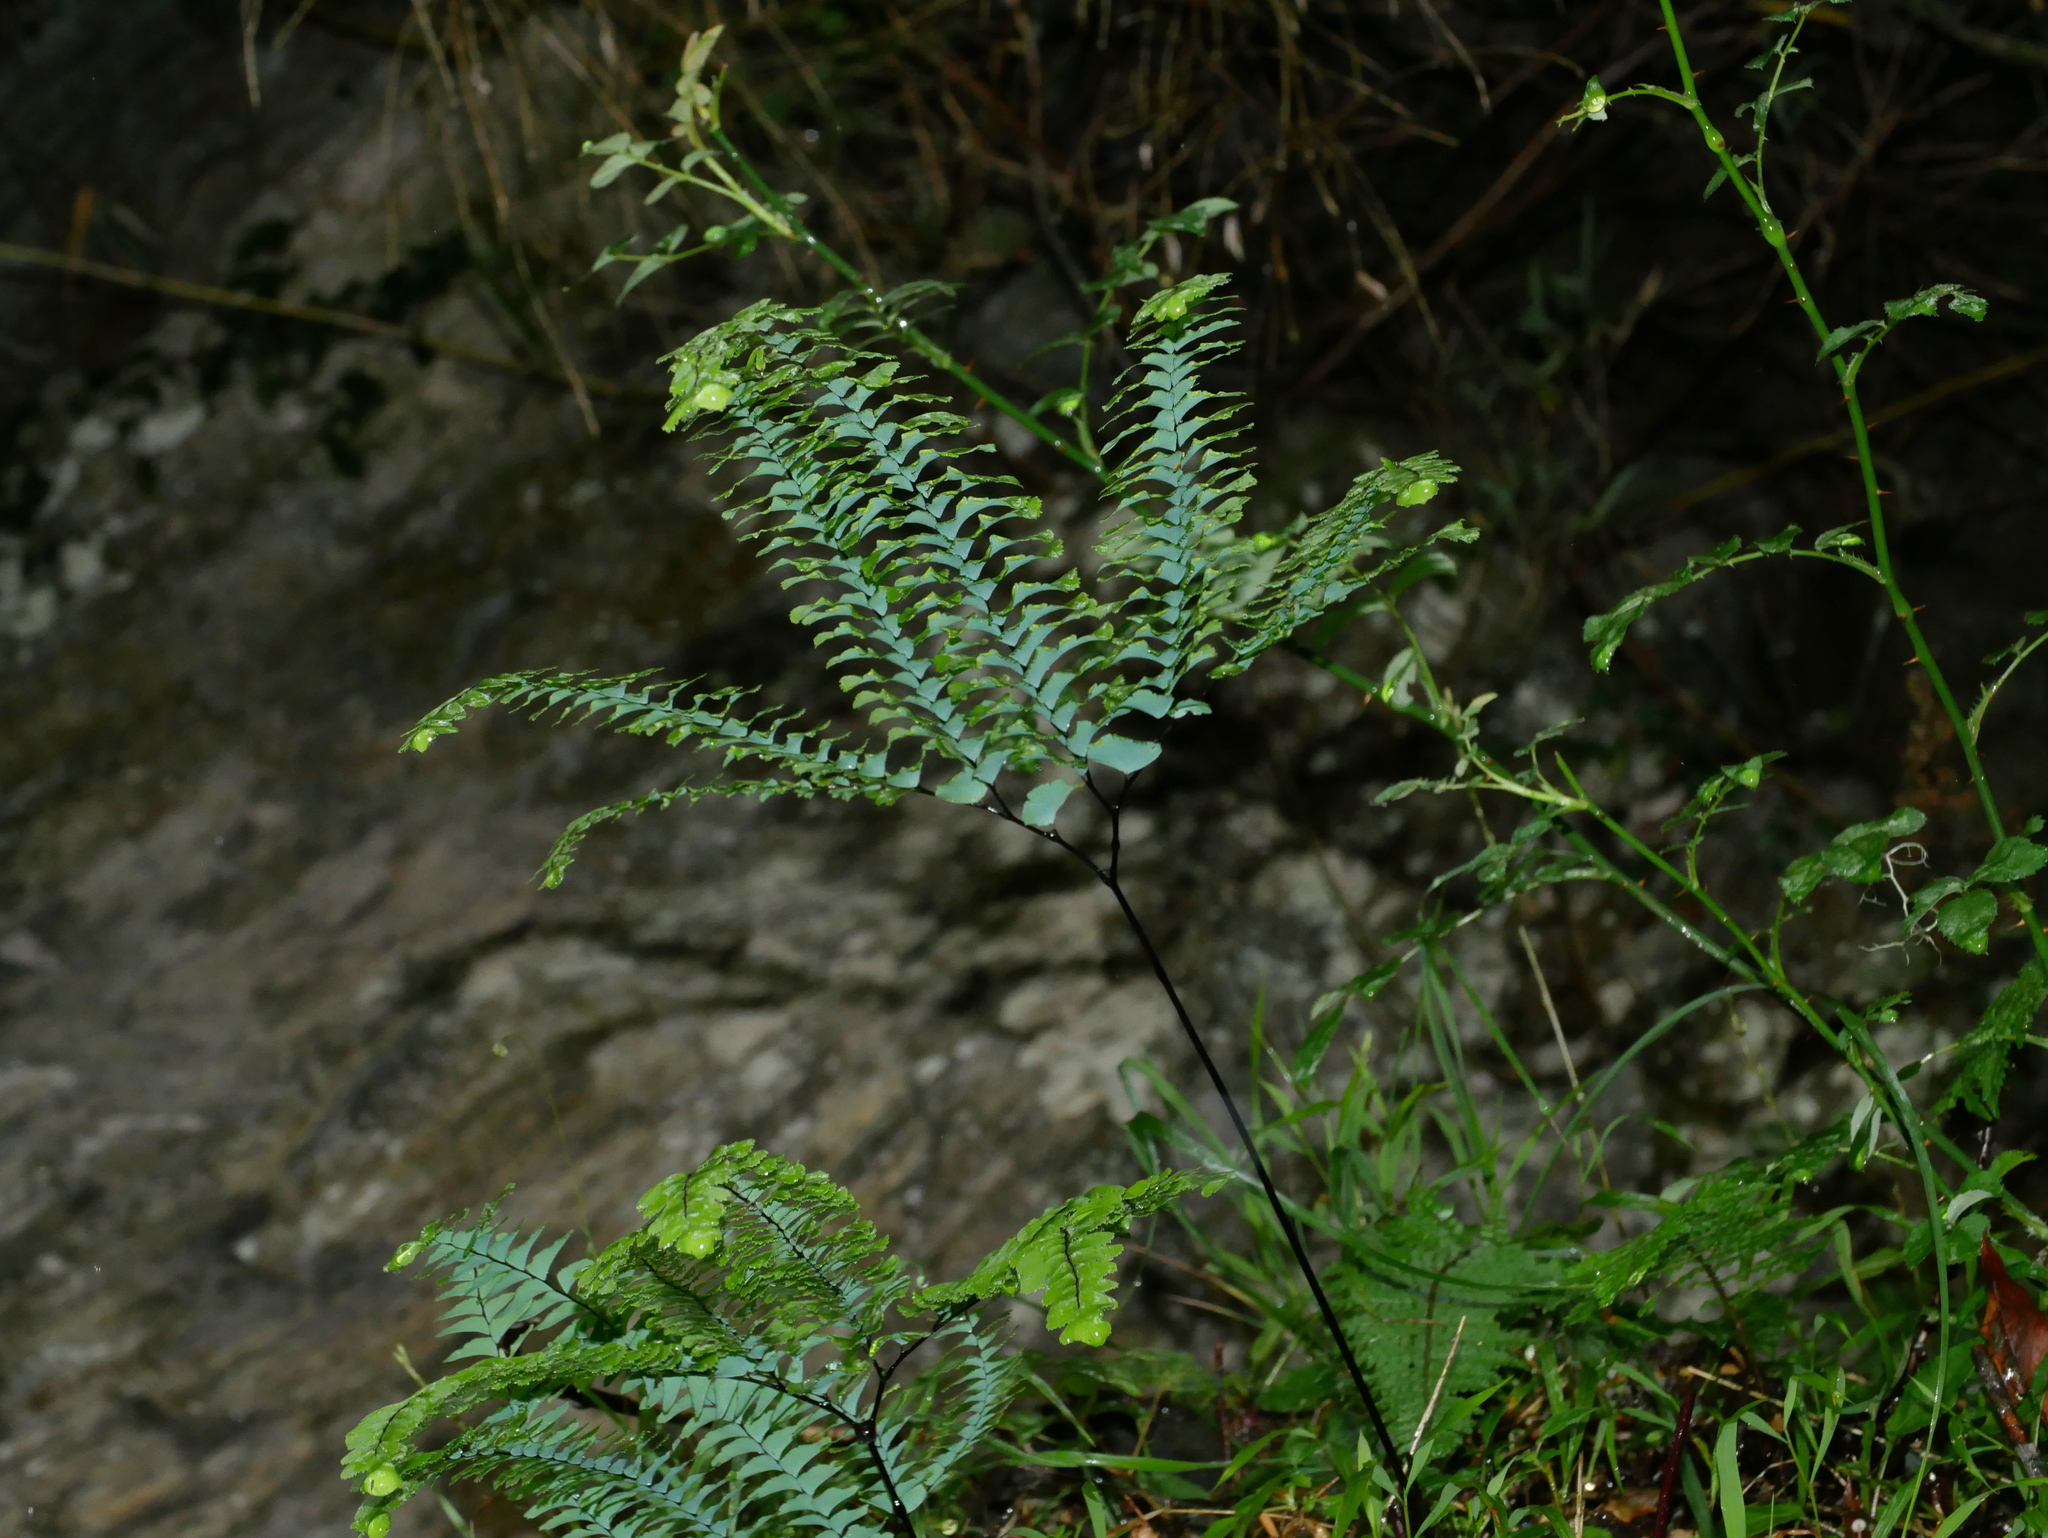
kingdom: Plantae
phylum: Tracheophyta
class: Polypodiopsida
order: Polypodiales
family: Pteridaceae
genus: Adiantum
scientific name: Adiantum myriosorum
